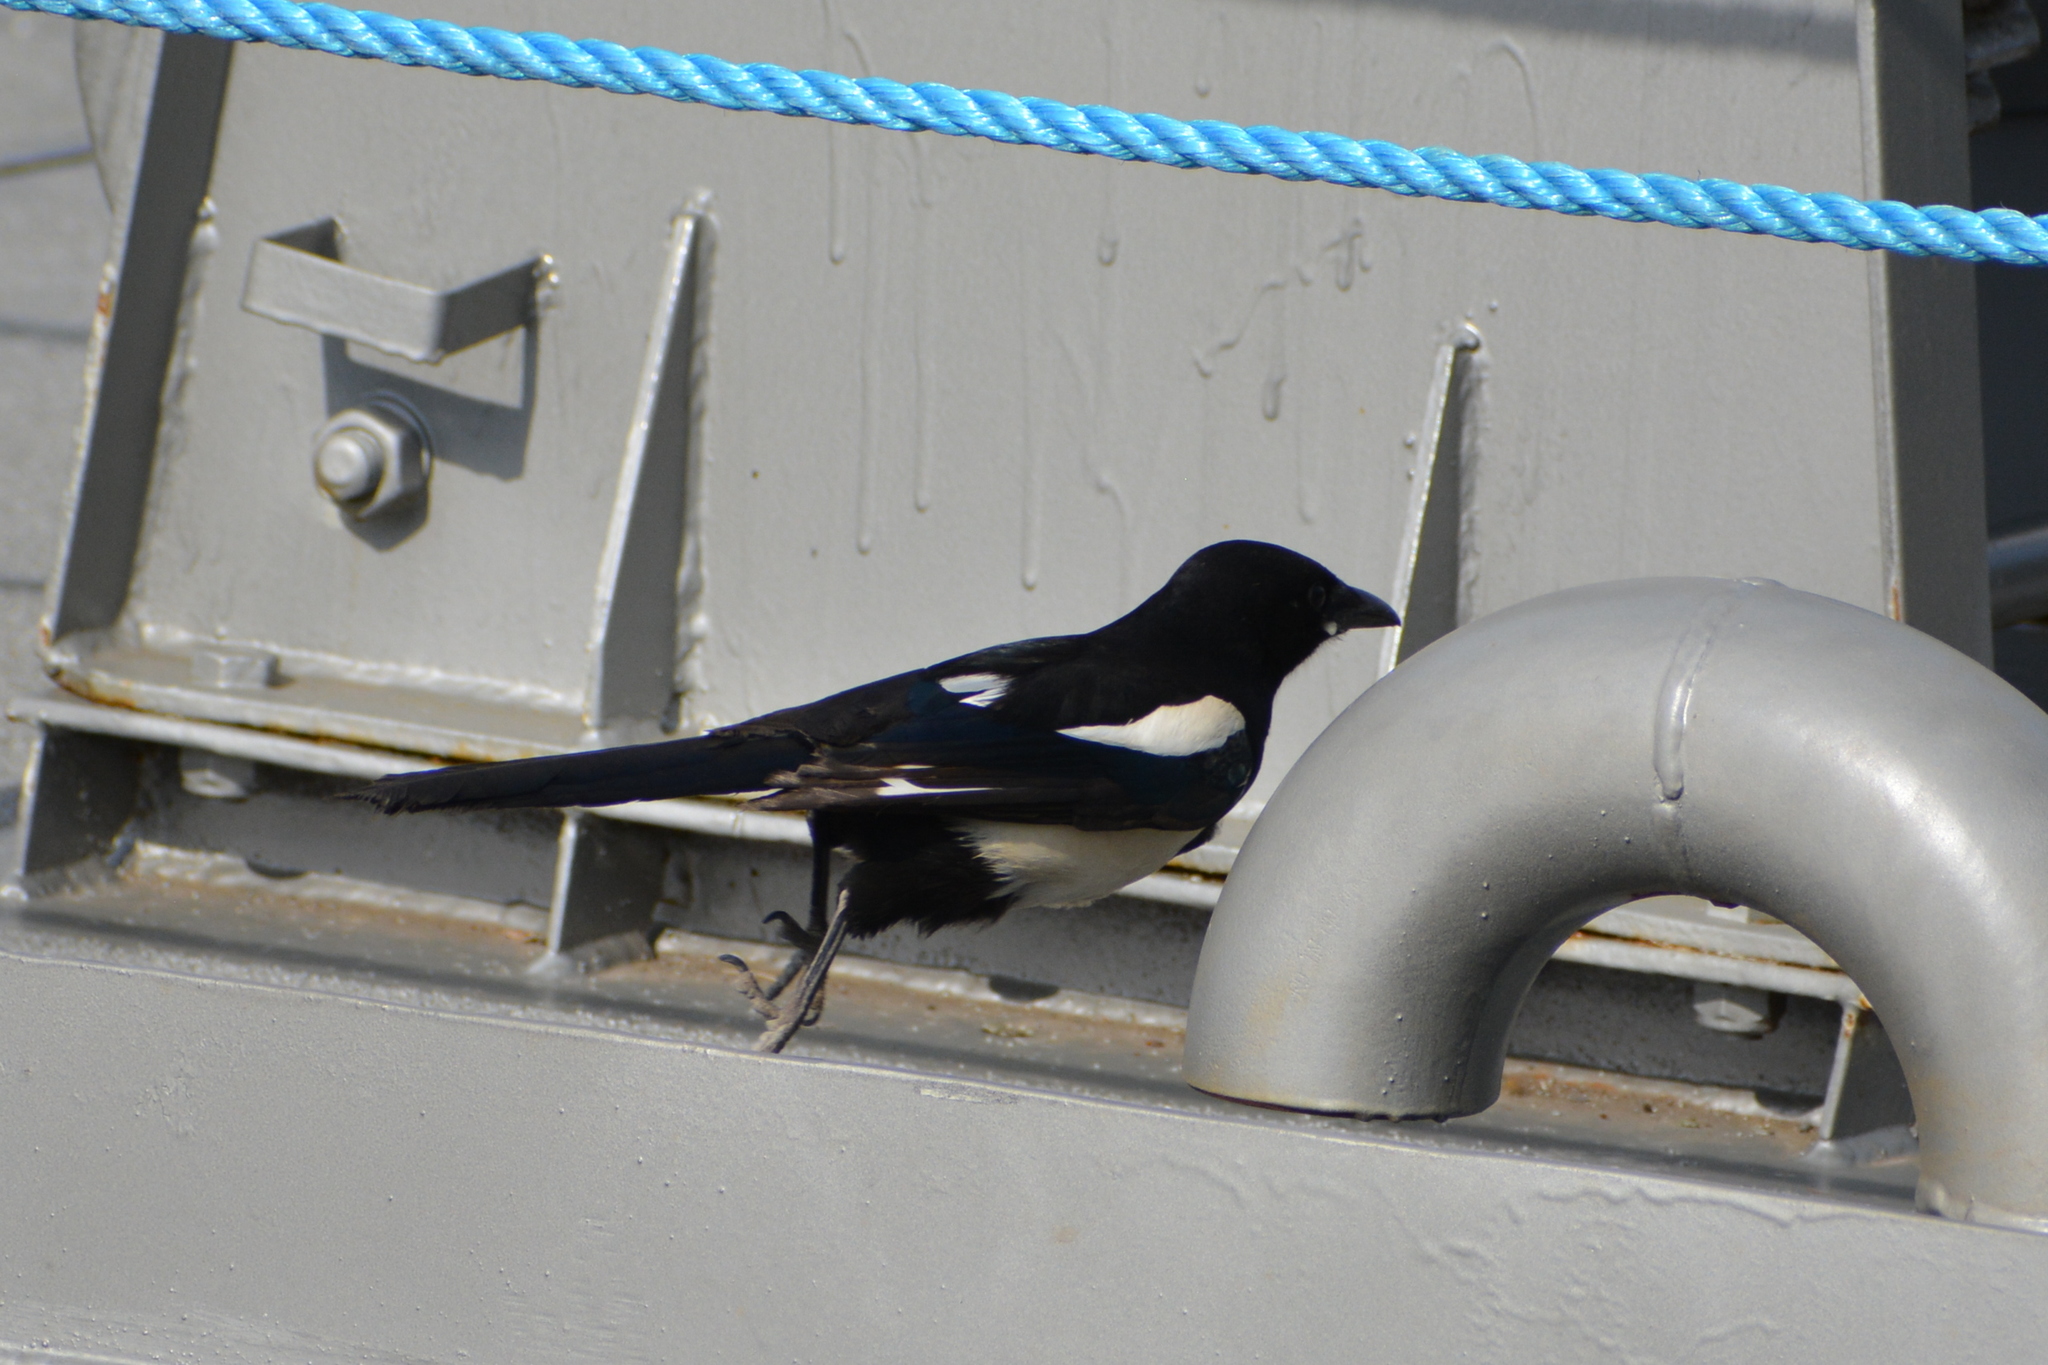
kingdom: Animalia
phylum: Chordata
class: Aves
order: Passeriformes
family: Corvidae
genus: Pica
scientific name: Pica pica
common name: Eurasian magpie
